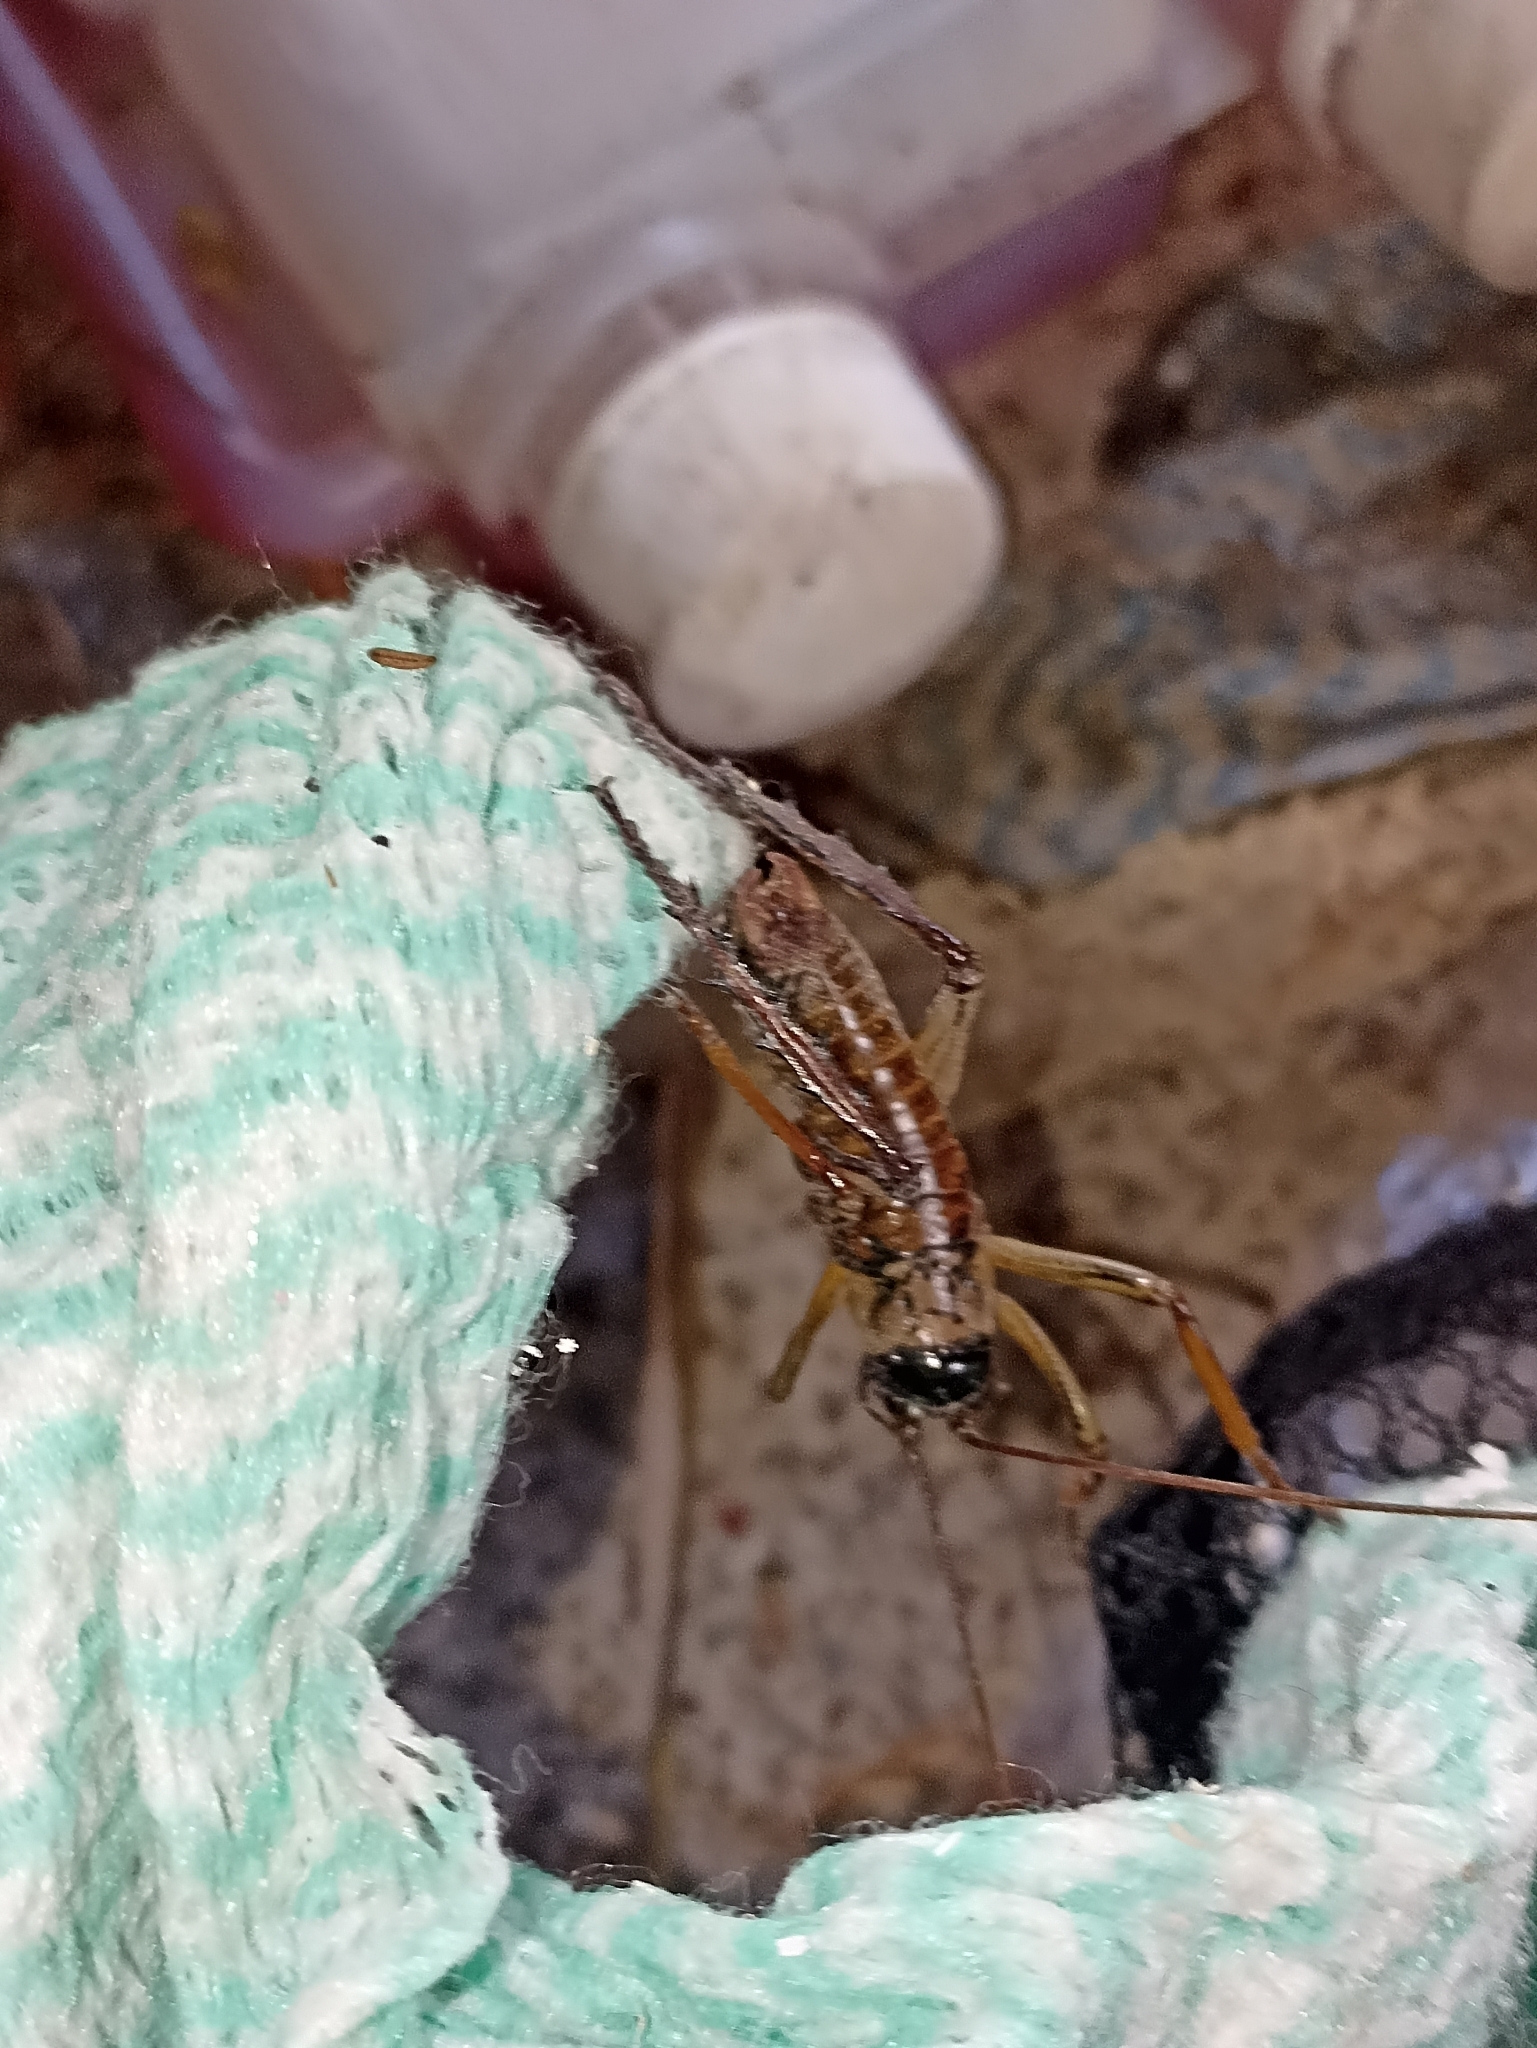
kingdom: Animalia
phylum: Arthropoda
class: Insecta
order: Orthoptera
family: Anostostomatidae
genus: Hemideina
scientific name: Hemideina thoracica
